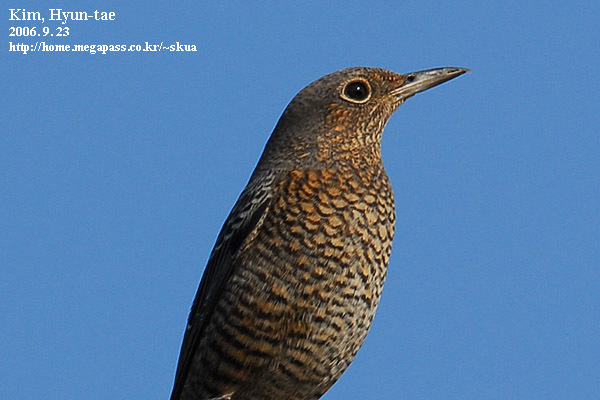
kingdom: Animalia
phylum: Chordata
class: Aves
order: Passeriformes
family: Muscicapidae
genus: Monticola
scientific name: Monticola solitarius
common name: Blue rock thrush
